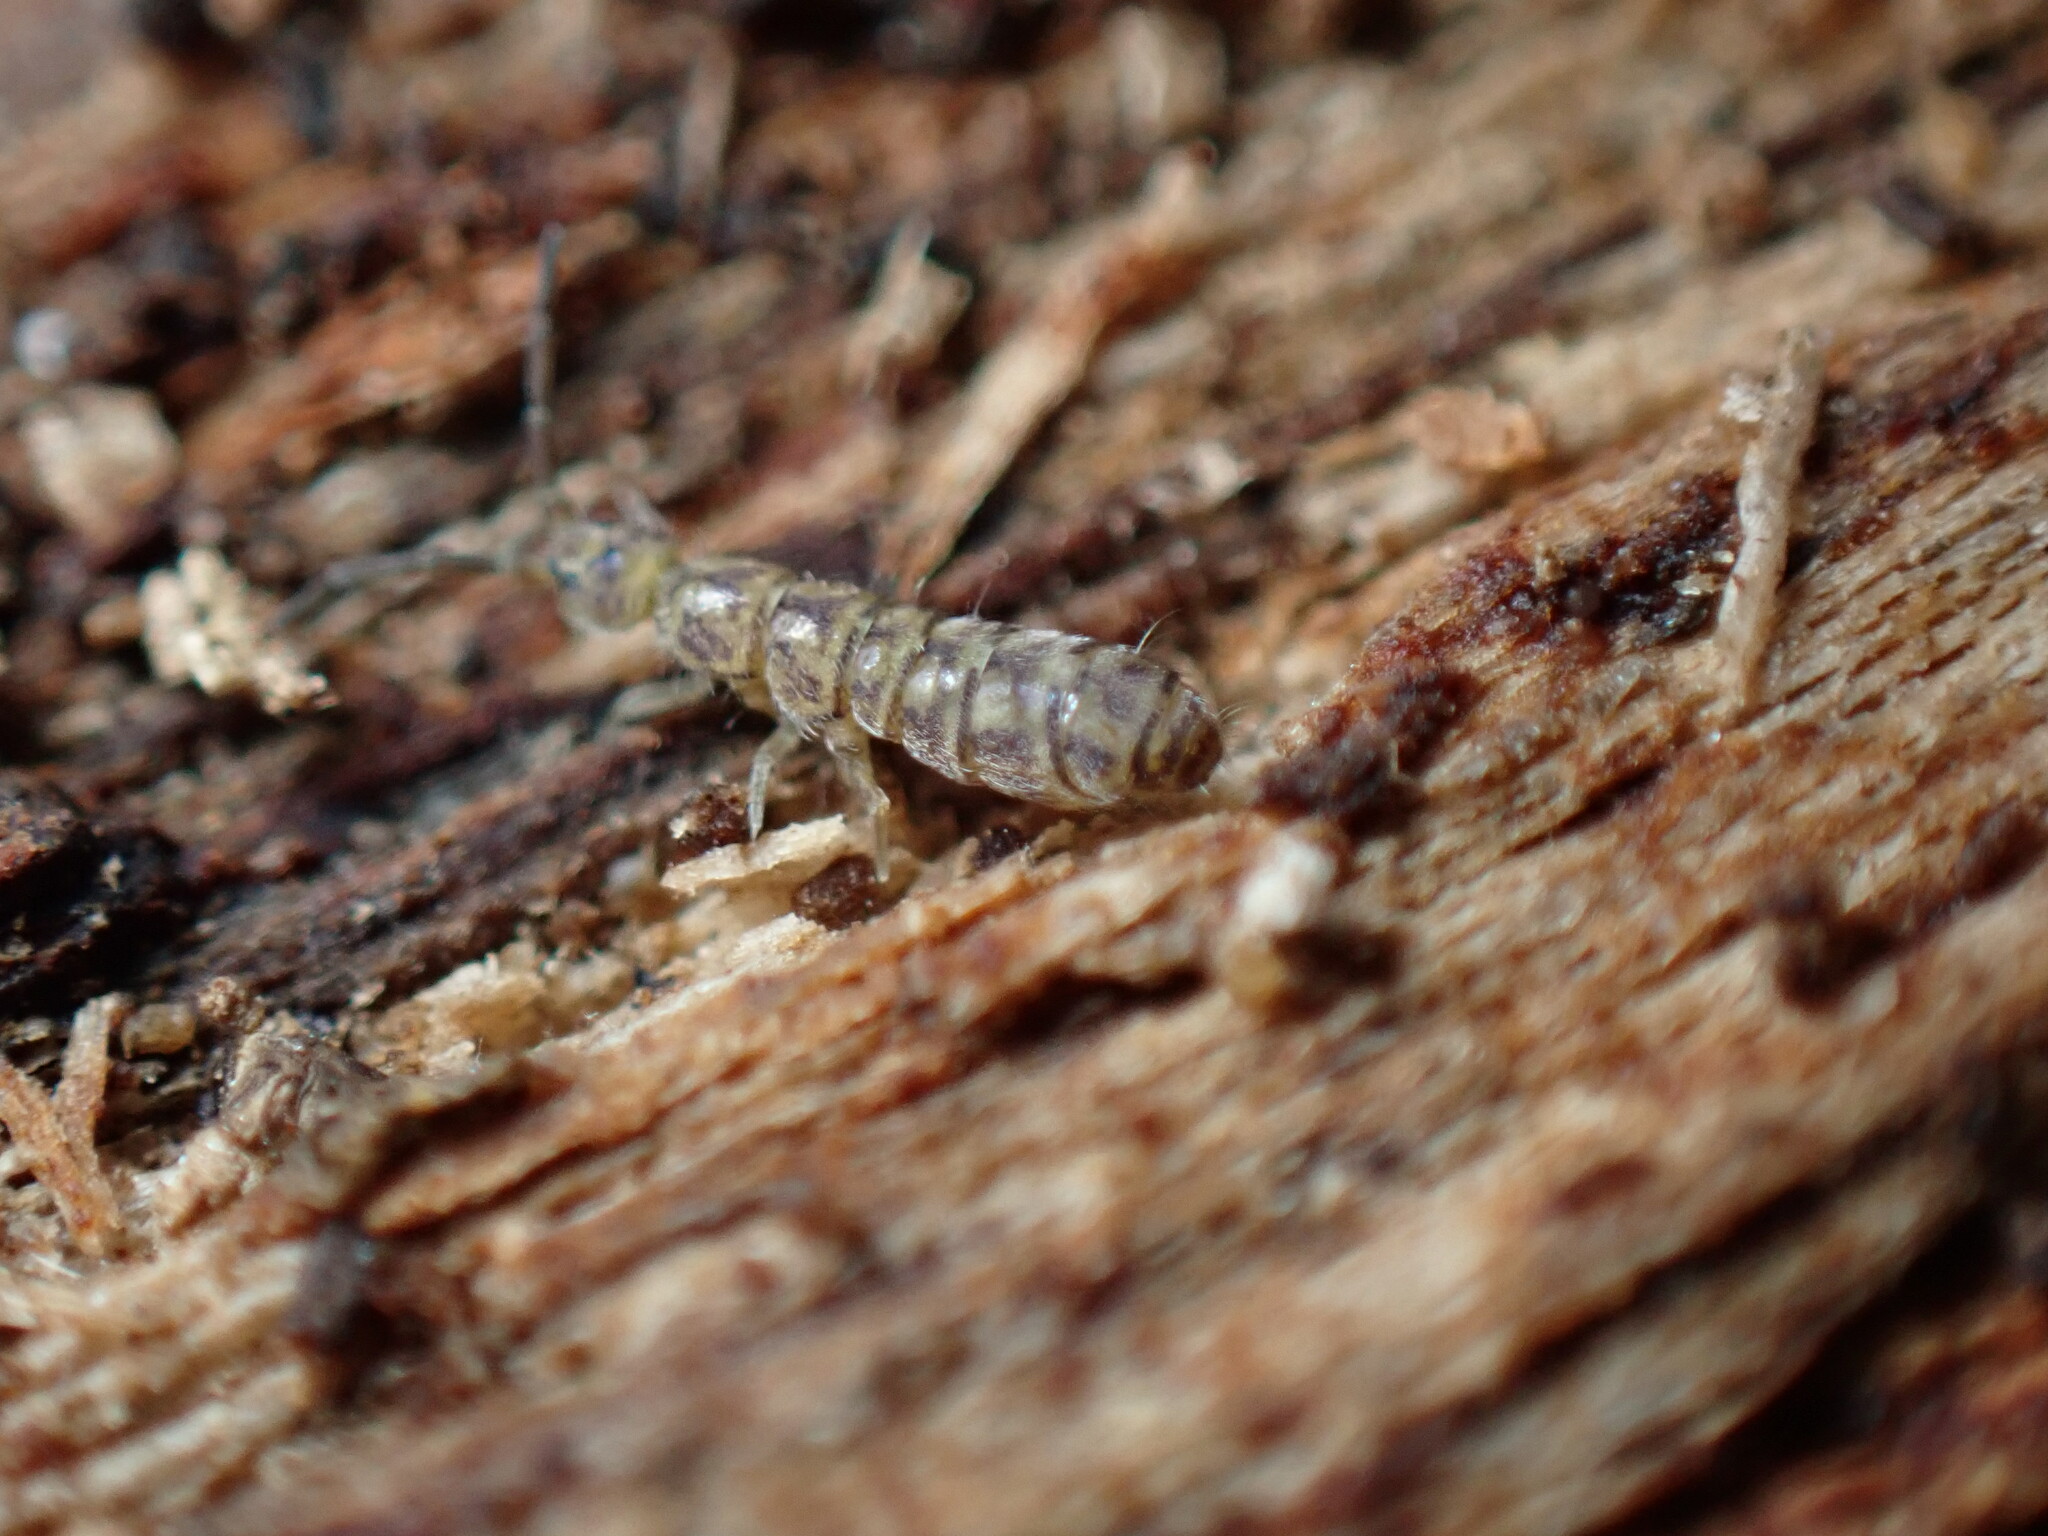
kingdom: Animalia
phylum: Arthropoda
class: Collembola
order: Entomobryomorpha
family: Isotomidae
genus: Isotoma
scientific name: Isotoma delta
